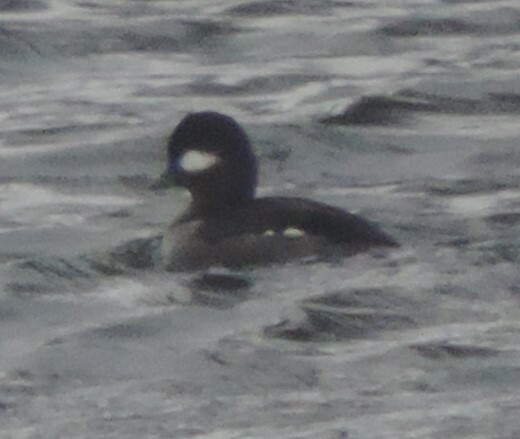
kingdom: Animalia
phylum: Chordata
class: Aves
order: Anseriformes
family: Anatidae
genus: Bucephala
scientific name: Bucephala albeola
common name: Bufflehead
